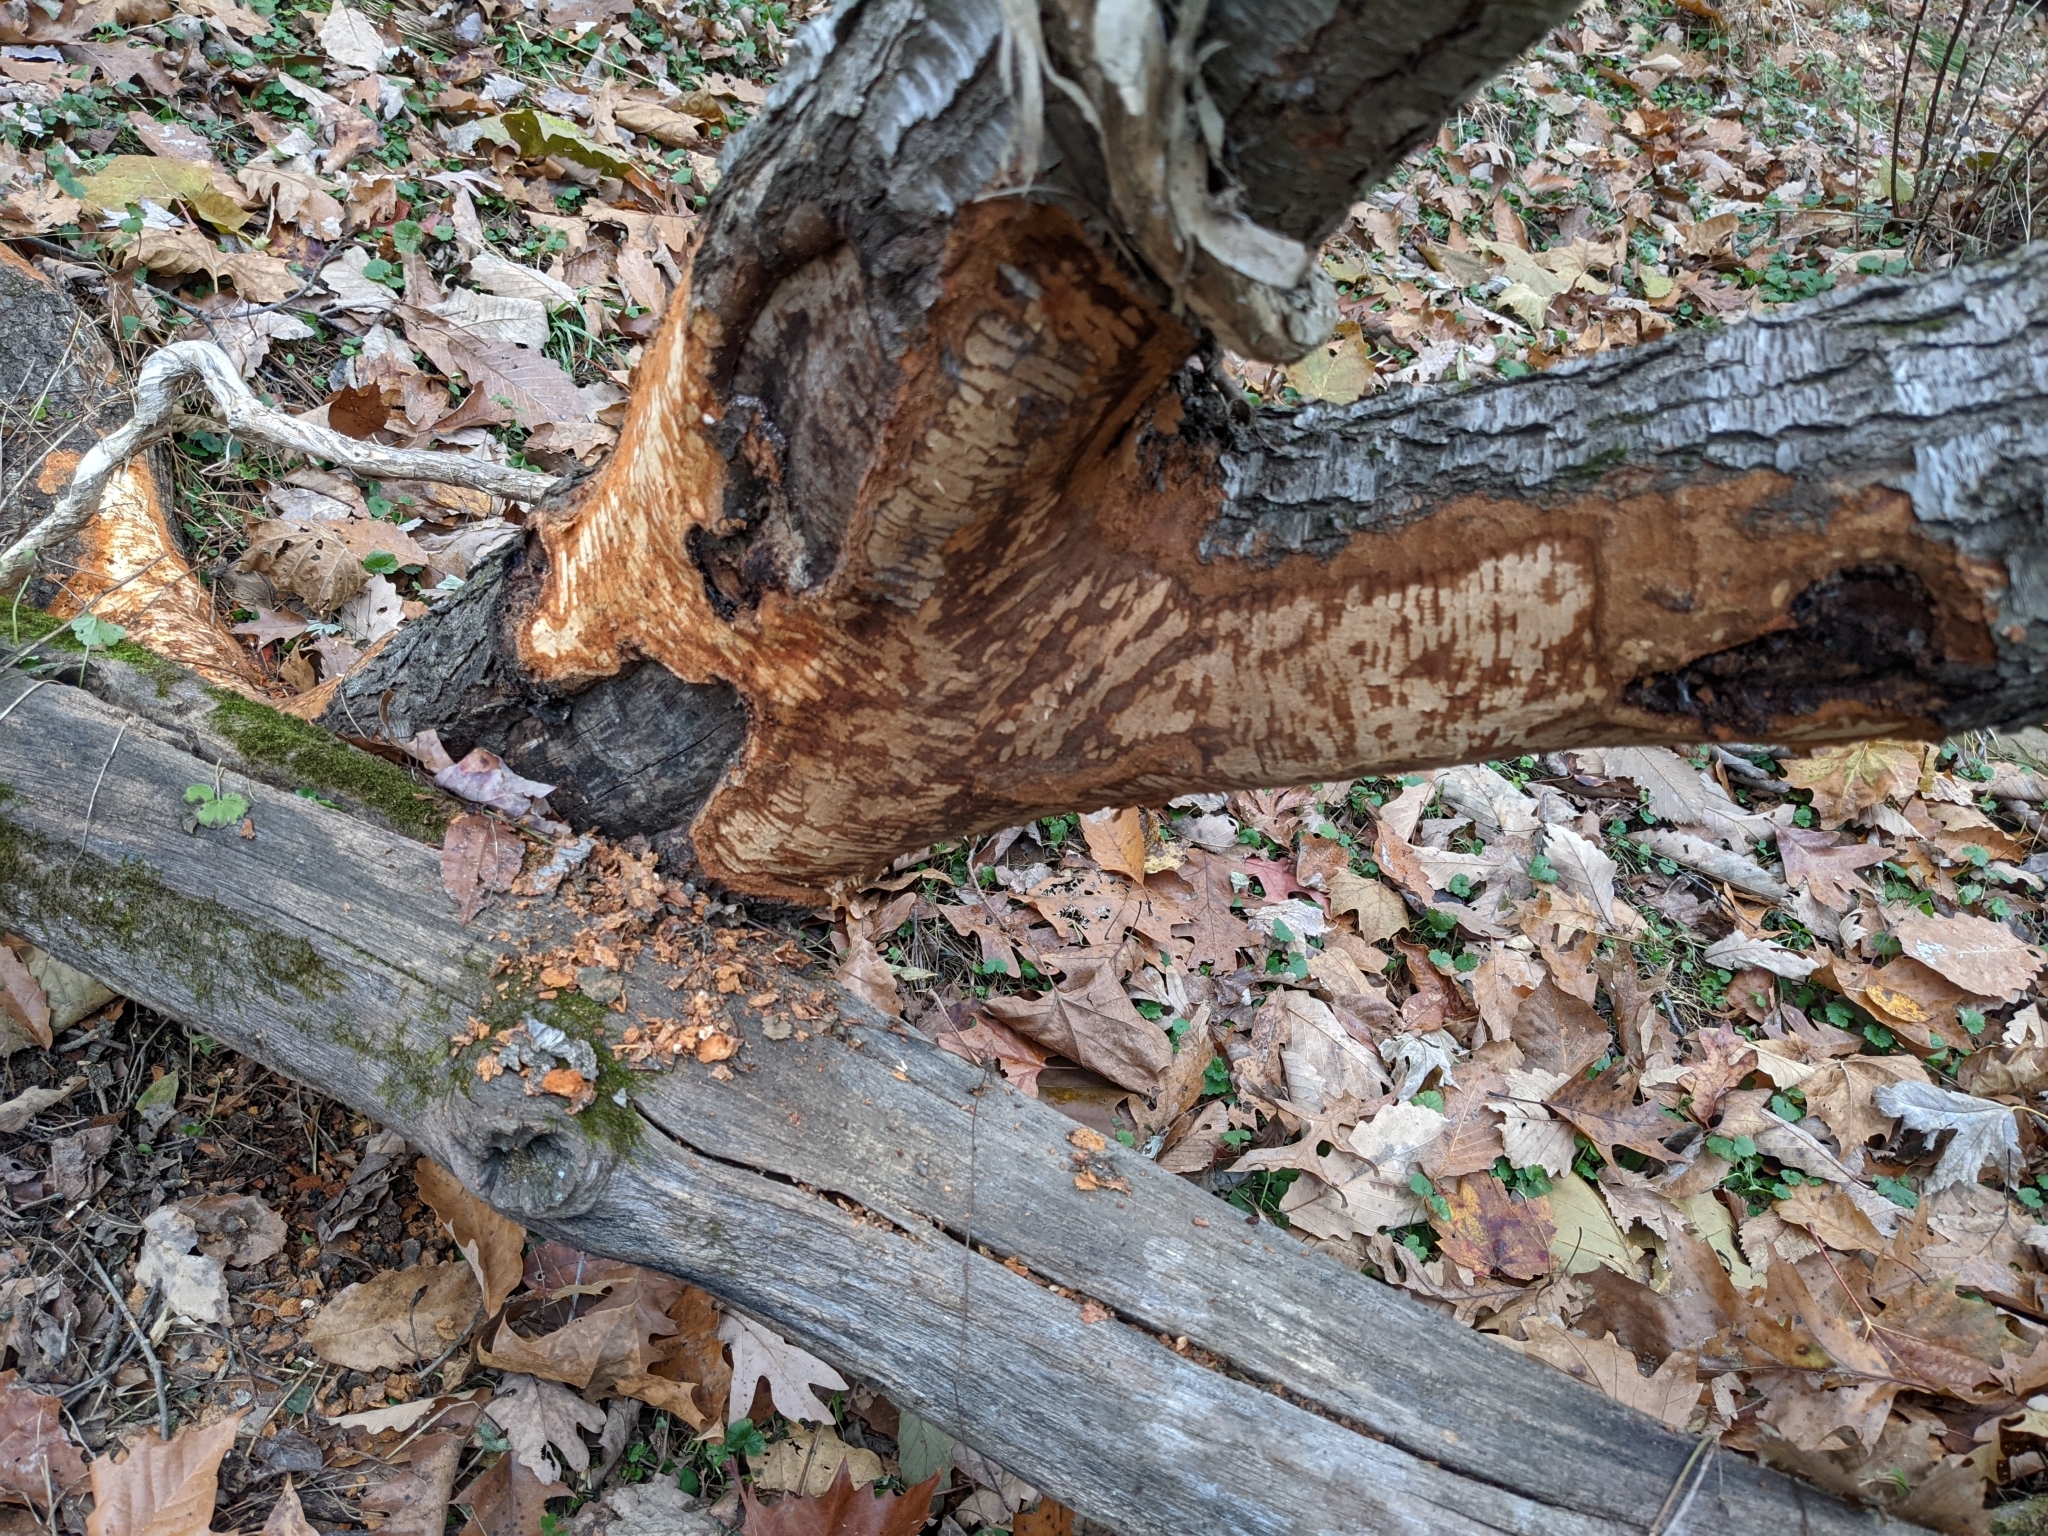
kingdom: Animalia
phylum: Chordata
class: Mammalia
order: Rodentia
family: Castoridae
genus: Castor
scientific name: Castor canadensis
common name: American beaver
